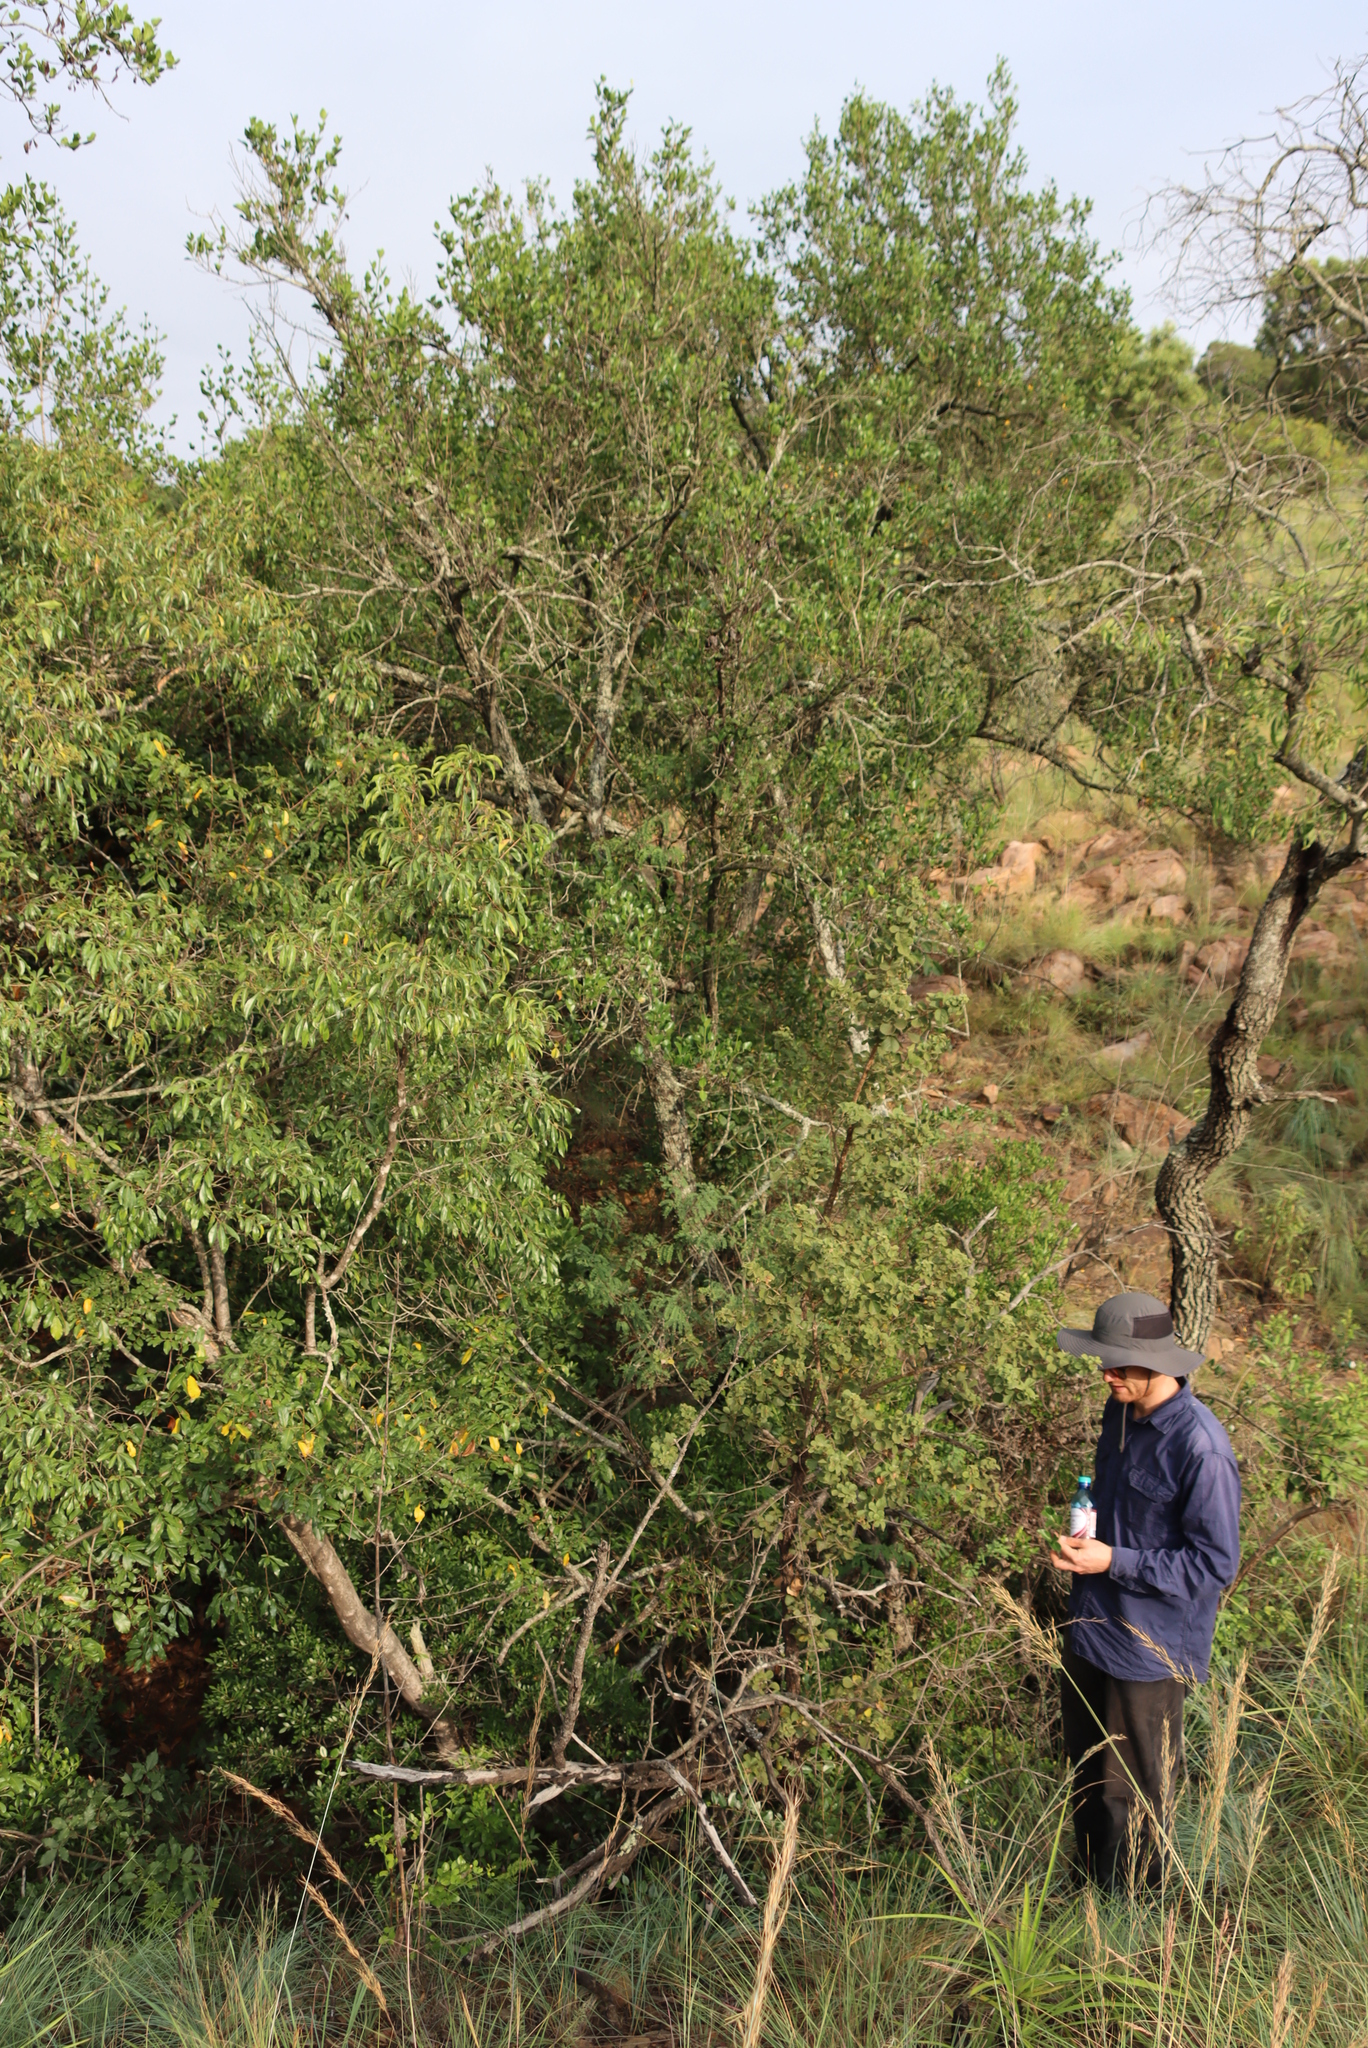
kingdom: Plantae
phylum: Tracheophyta
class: Magnoliopsida
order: Myrtales
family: Myrtaceae
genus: Heteropyxis
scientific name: Heteropyxis natalensis
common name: Lavender tree
